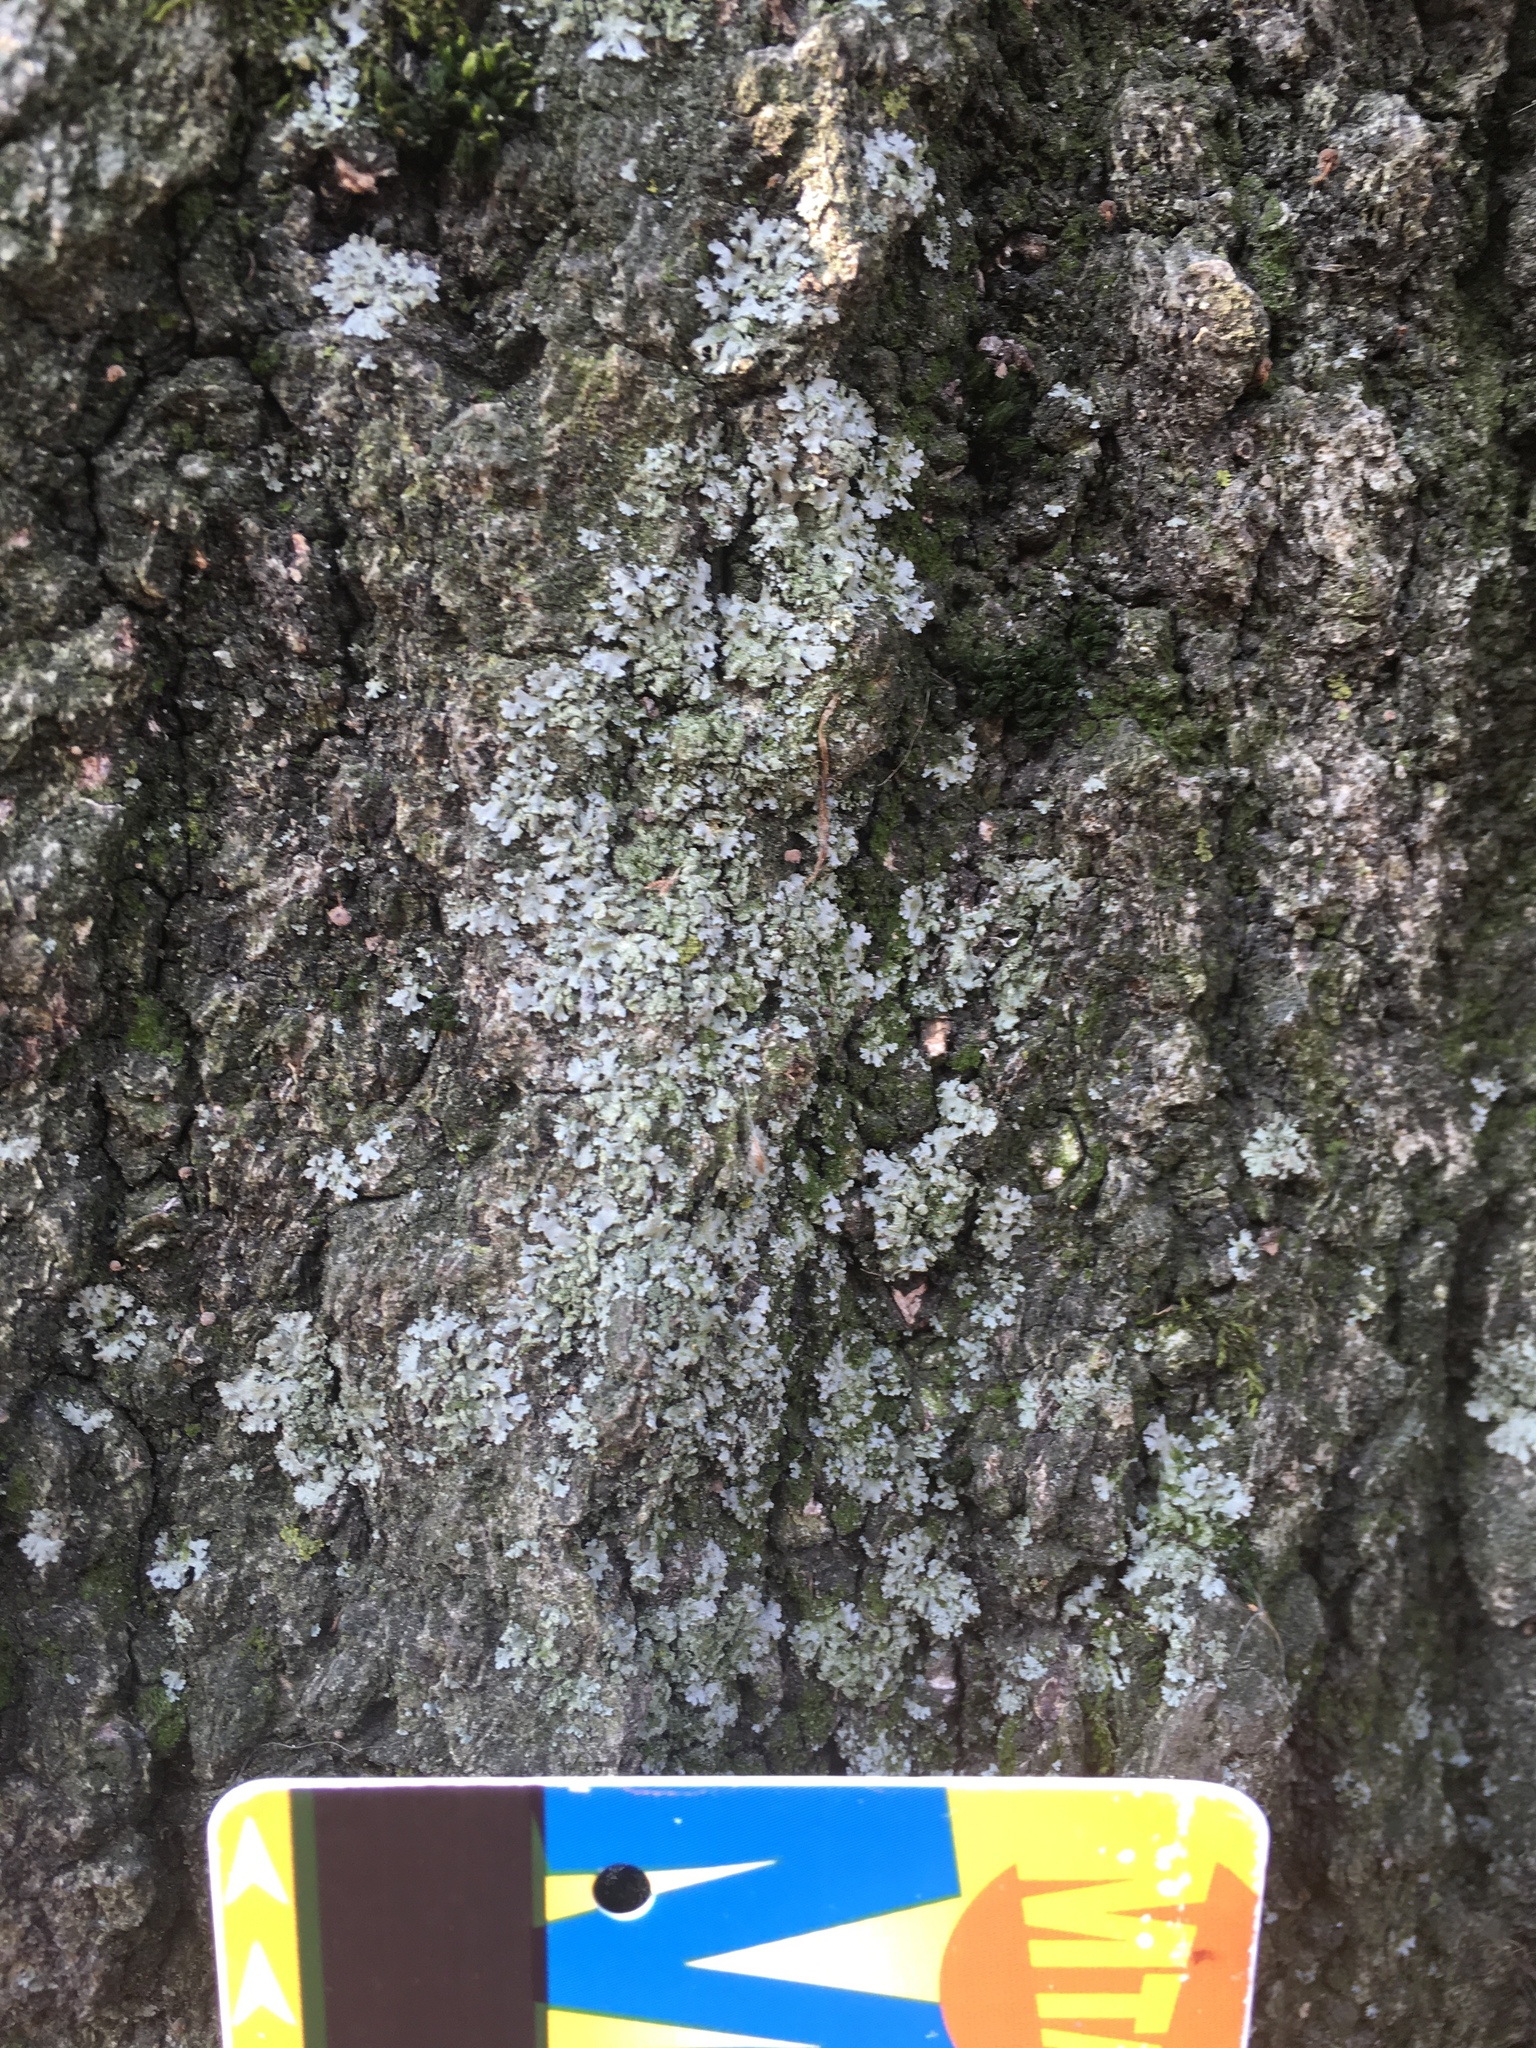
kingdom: Fungi
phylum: Ascomycota
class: Lecanoromycetes
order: Caliciales
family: Physciaceae
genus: Physcia
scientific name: Physcia millegrana
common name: Rosette lichen
